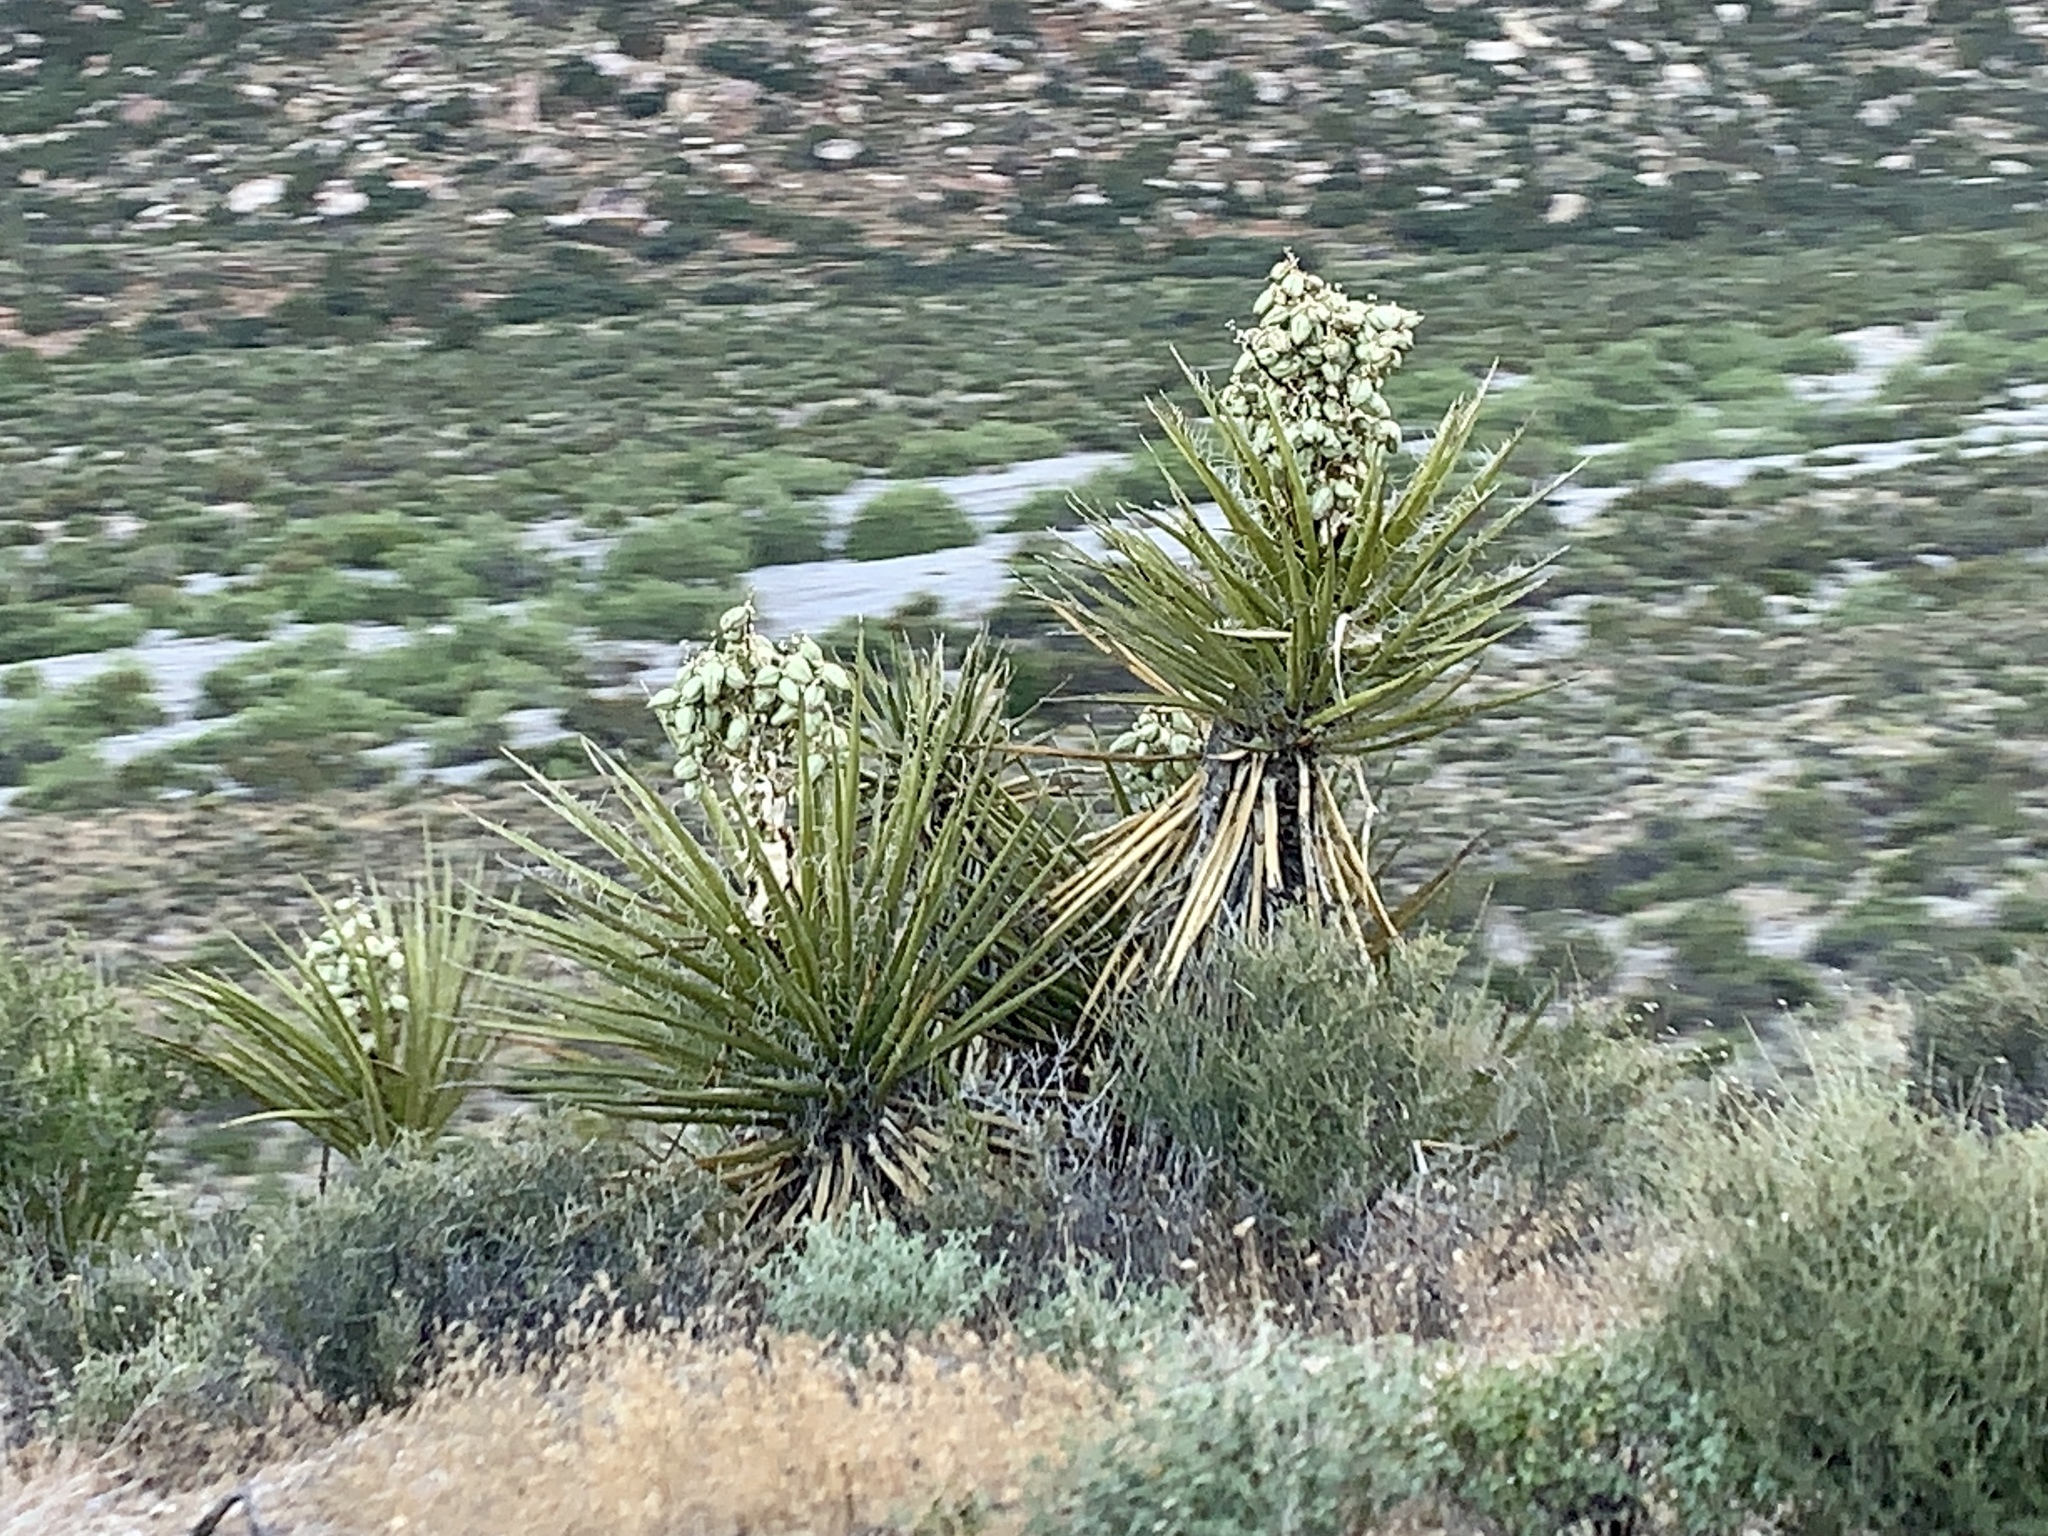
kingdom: Plantae
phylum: Tracheophyta
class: Liliopsida
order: Asparagales
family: Asparagaceae
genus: Yucca
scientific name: Yucca schidigera
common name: Mojave yucca
